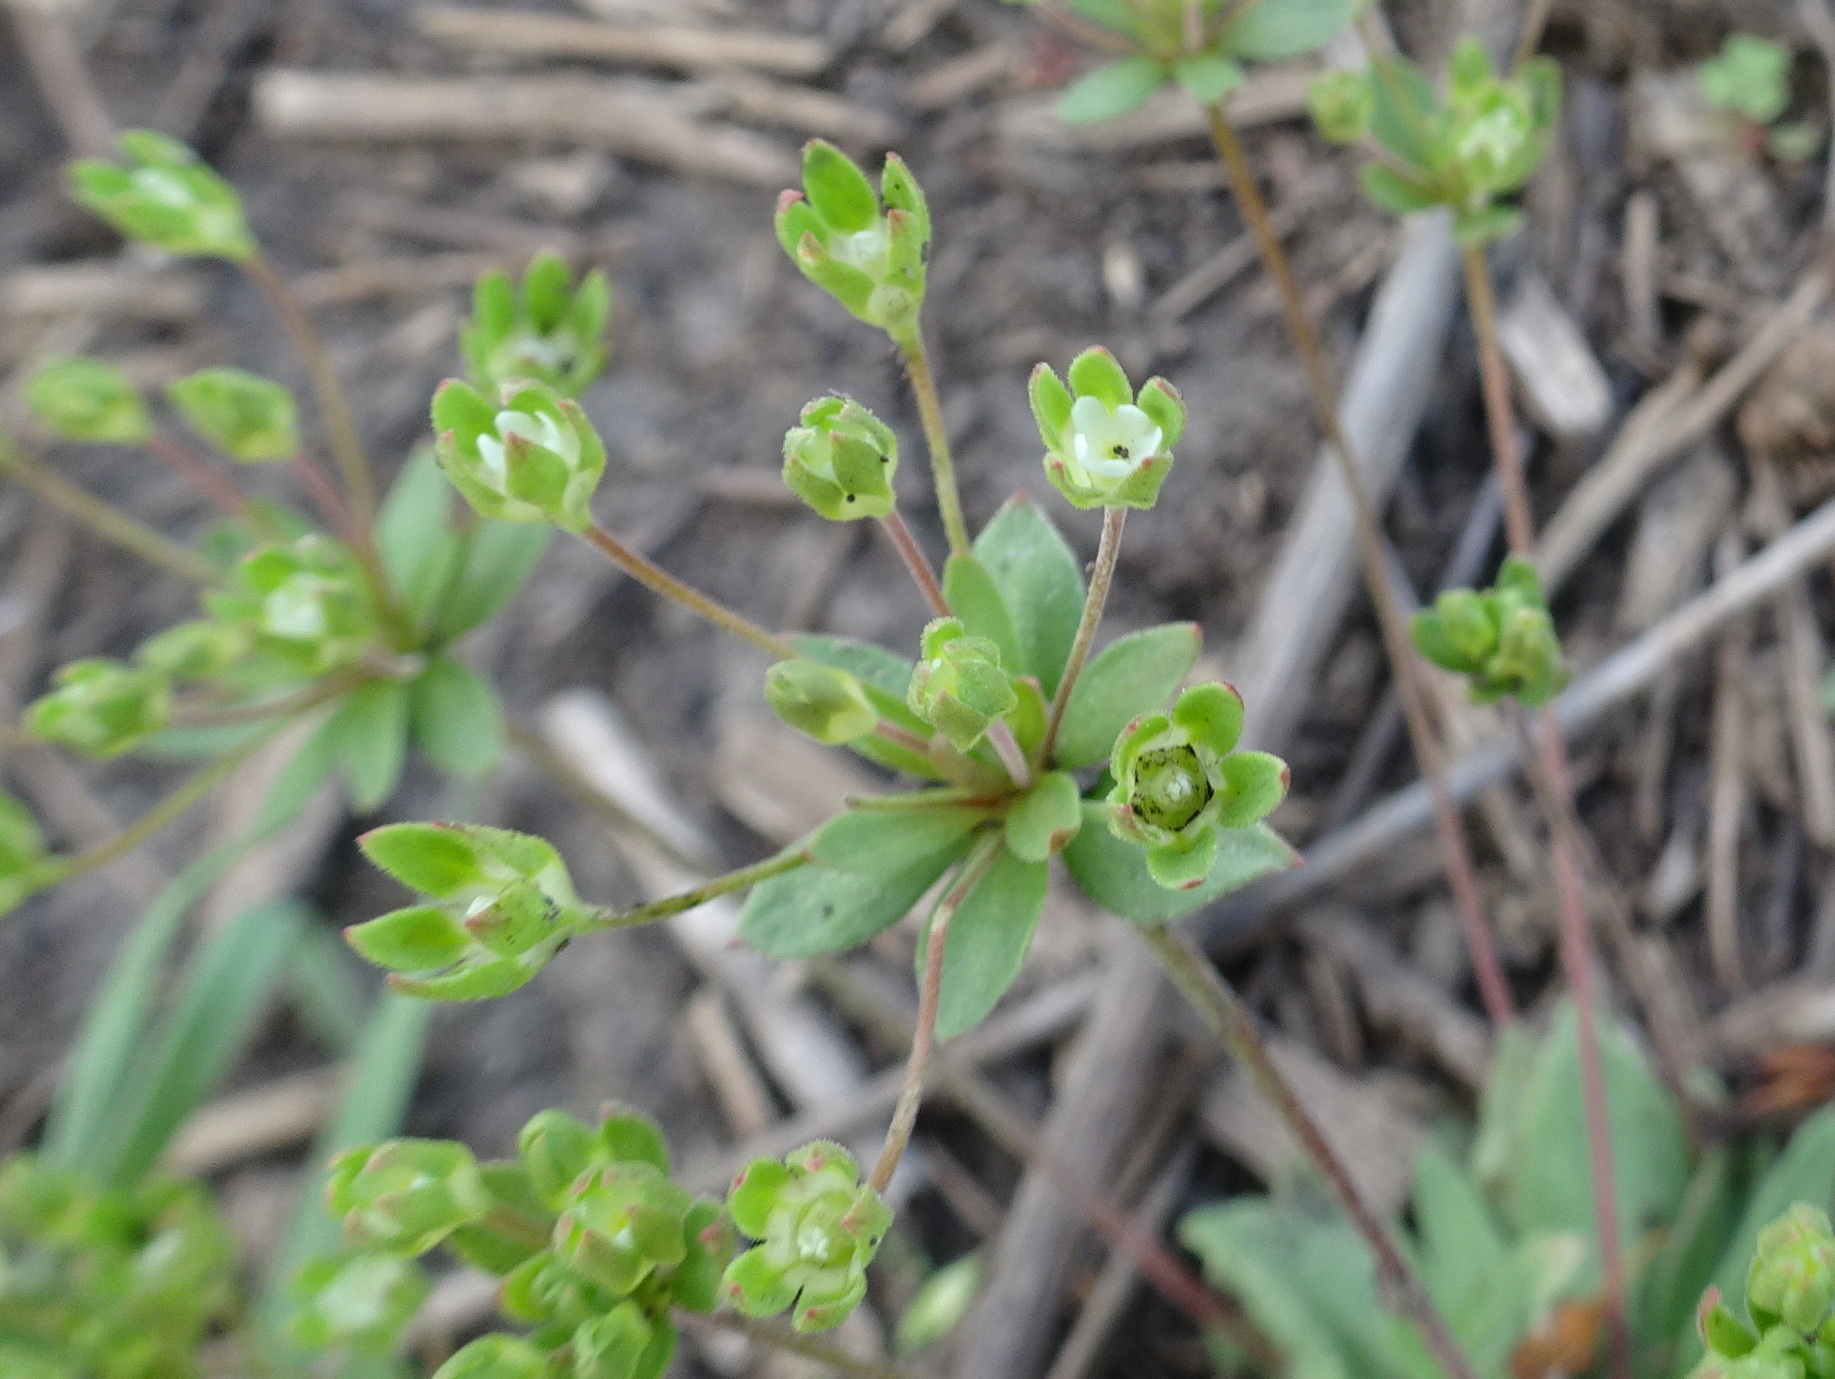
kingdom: Plantae
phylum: Tracheophyta
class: Magnoliopsida
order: Ericales
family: Primulaceae
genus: Androsace
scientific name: Androsace occidentalis
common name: West rock-jasmine
